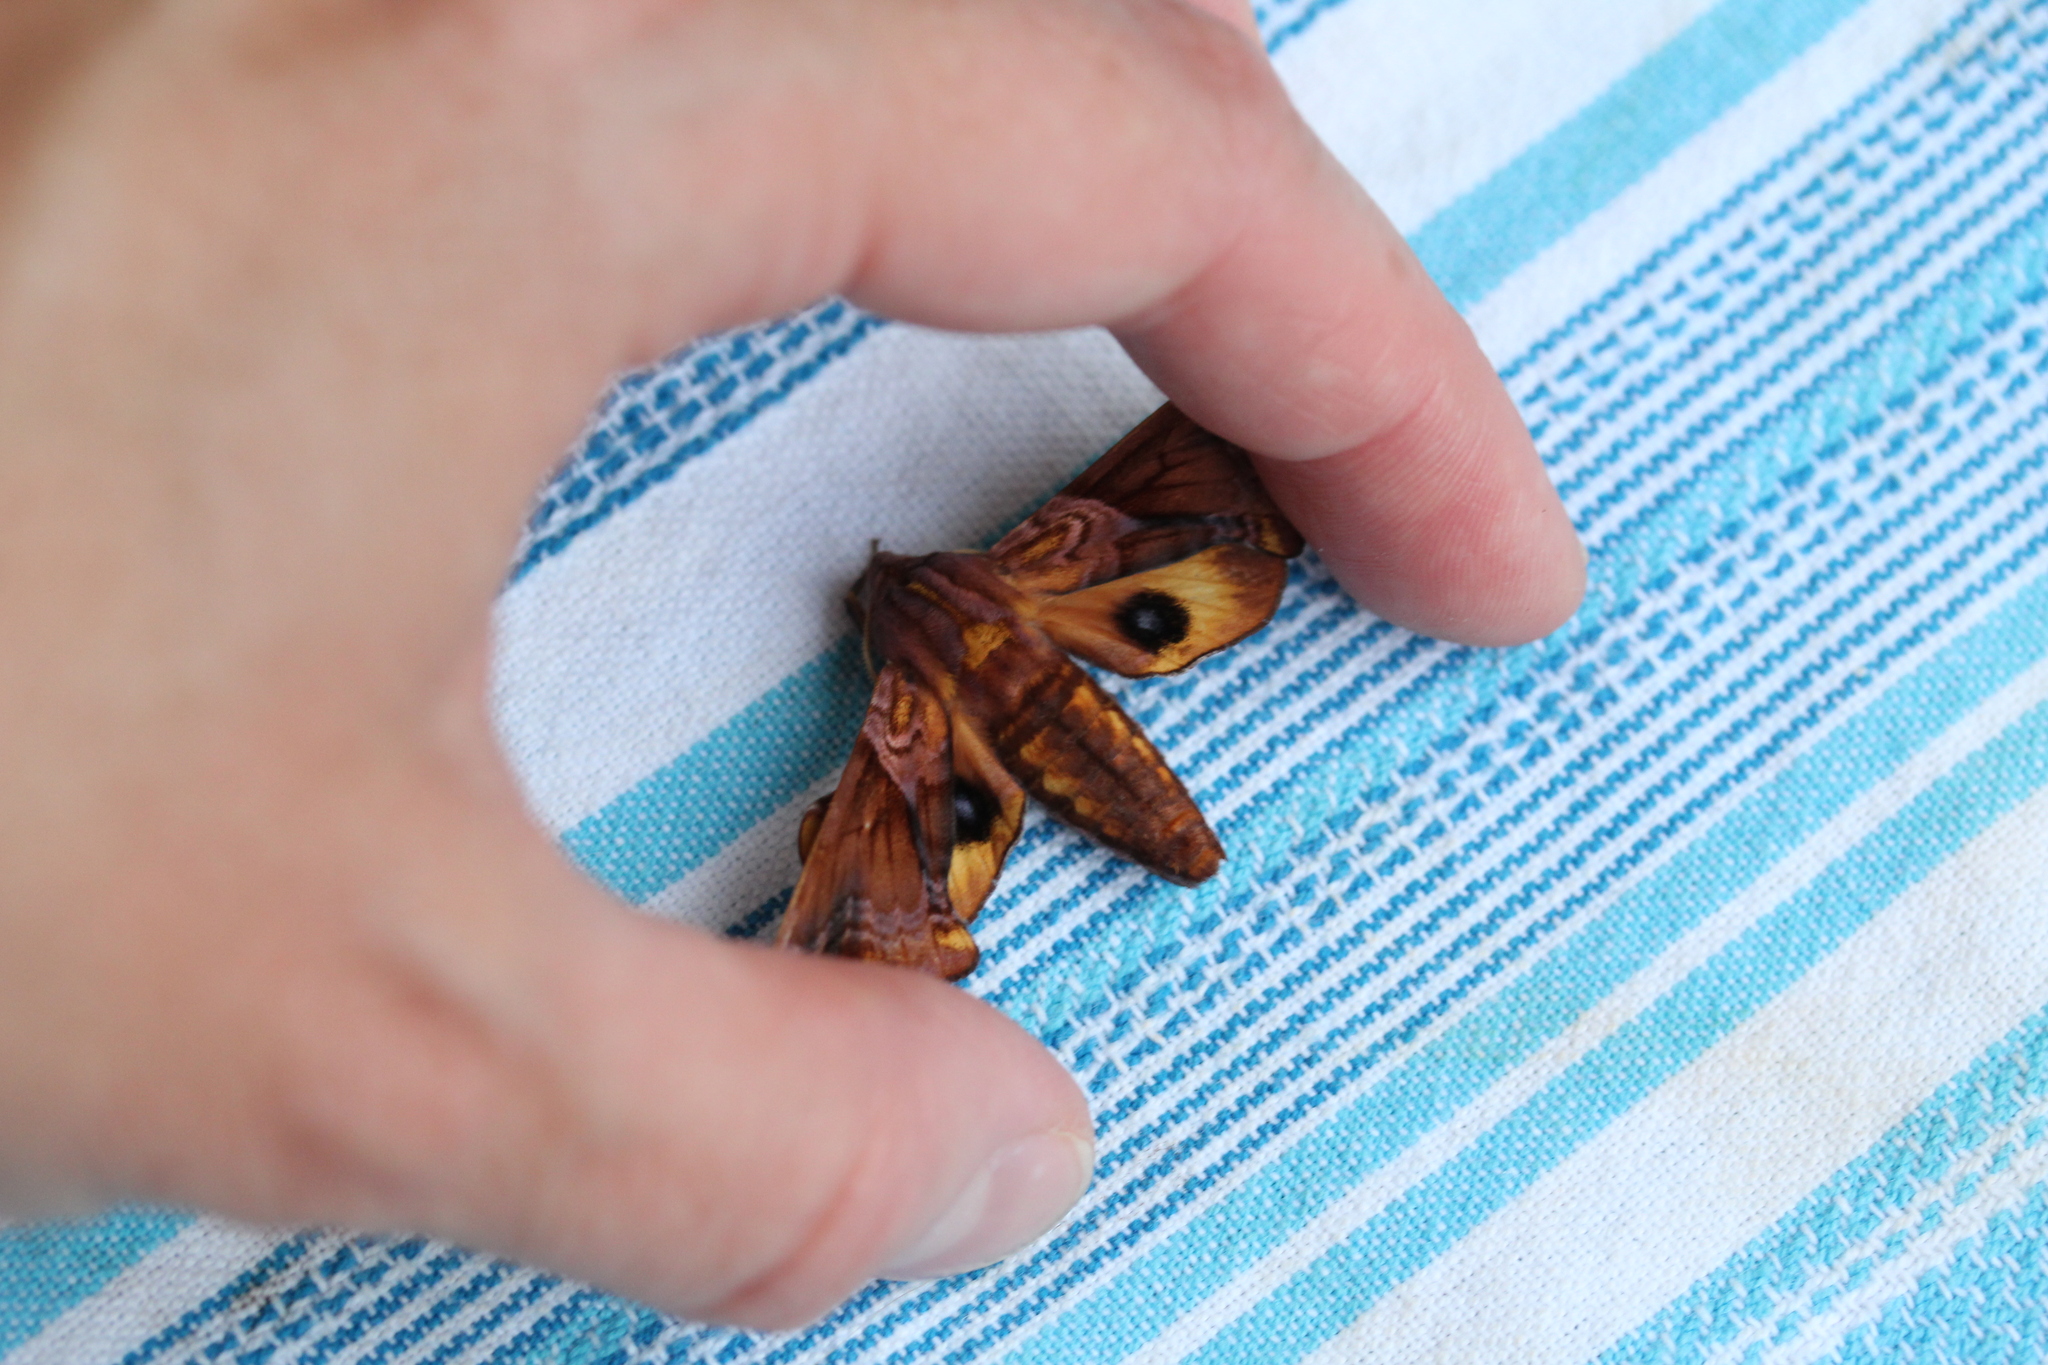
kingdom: Animalia
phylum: Arthropoda
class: Insecta
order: Lepidoptera
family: Sphingidae
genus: Paonias
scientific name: Paonias myops
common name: Small-eyed sphinx
